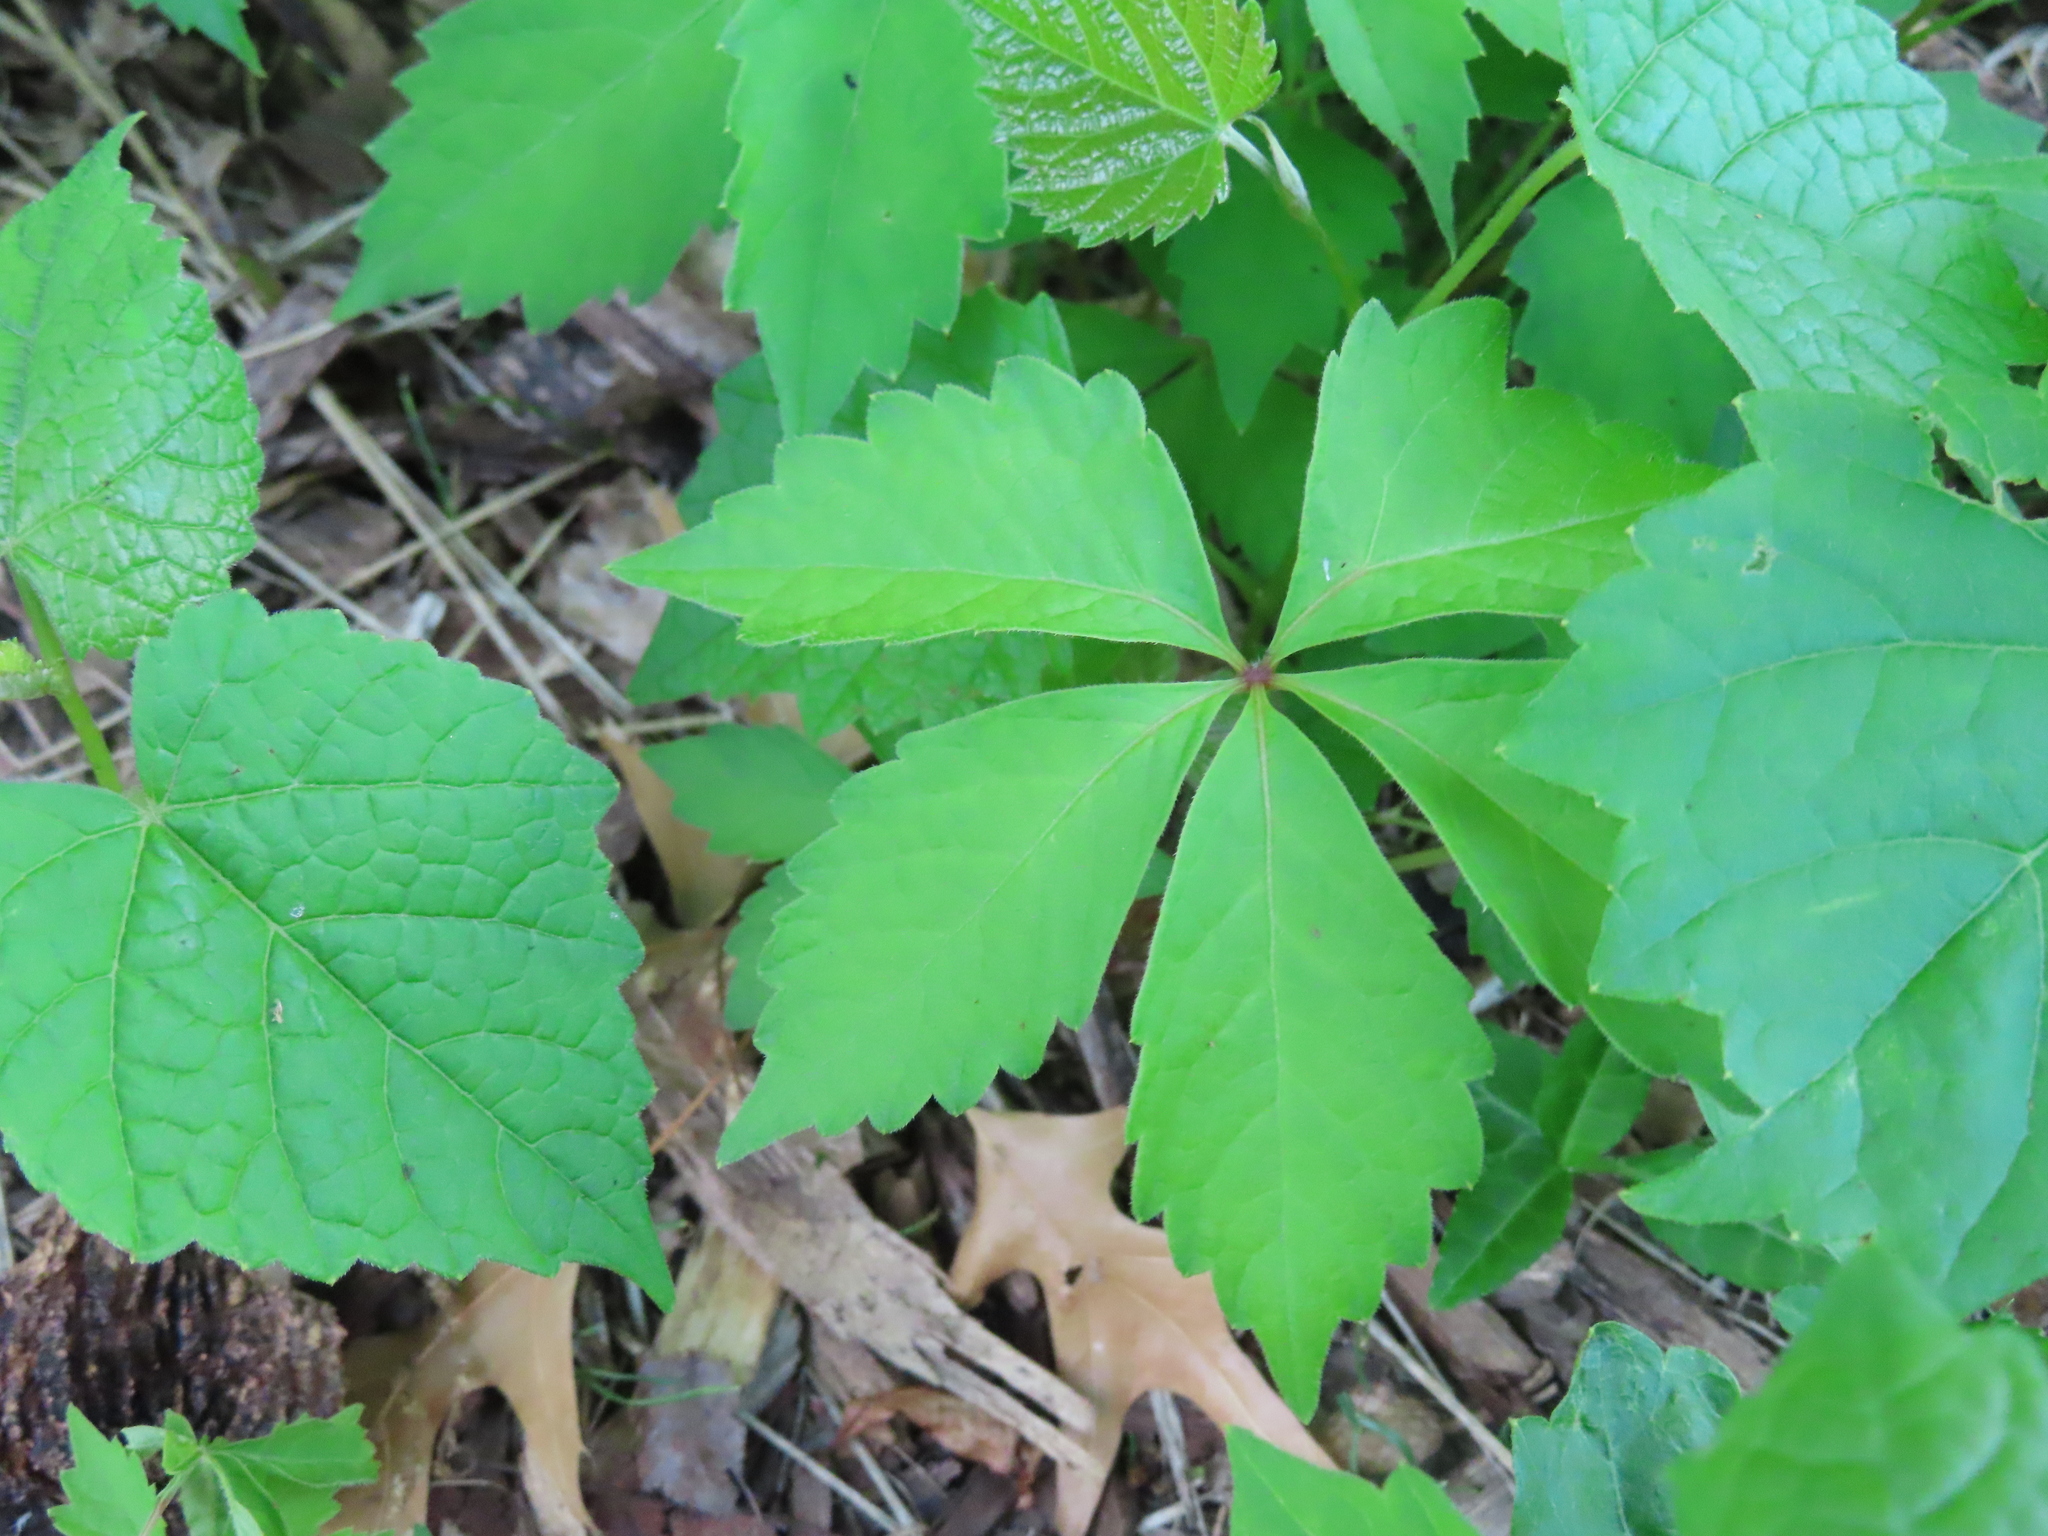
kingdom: Plantae
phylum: Tracheophyta
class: Magnoliopsida
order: Vitales
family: Vitaceae
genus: Parthenocissus
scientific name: Parthenocissus quinquefolia
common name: Virginia-creeper
